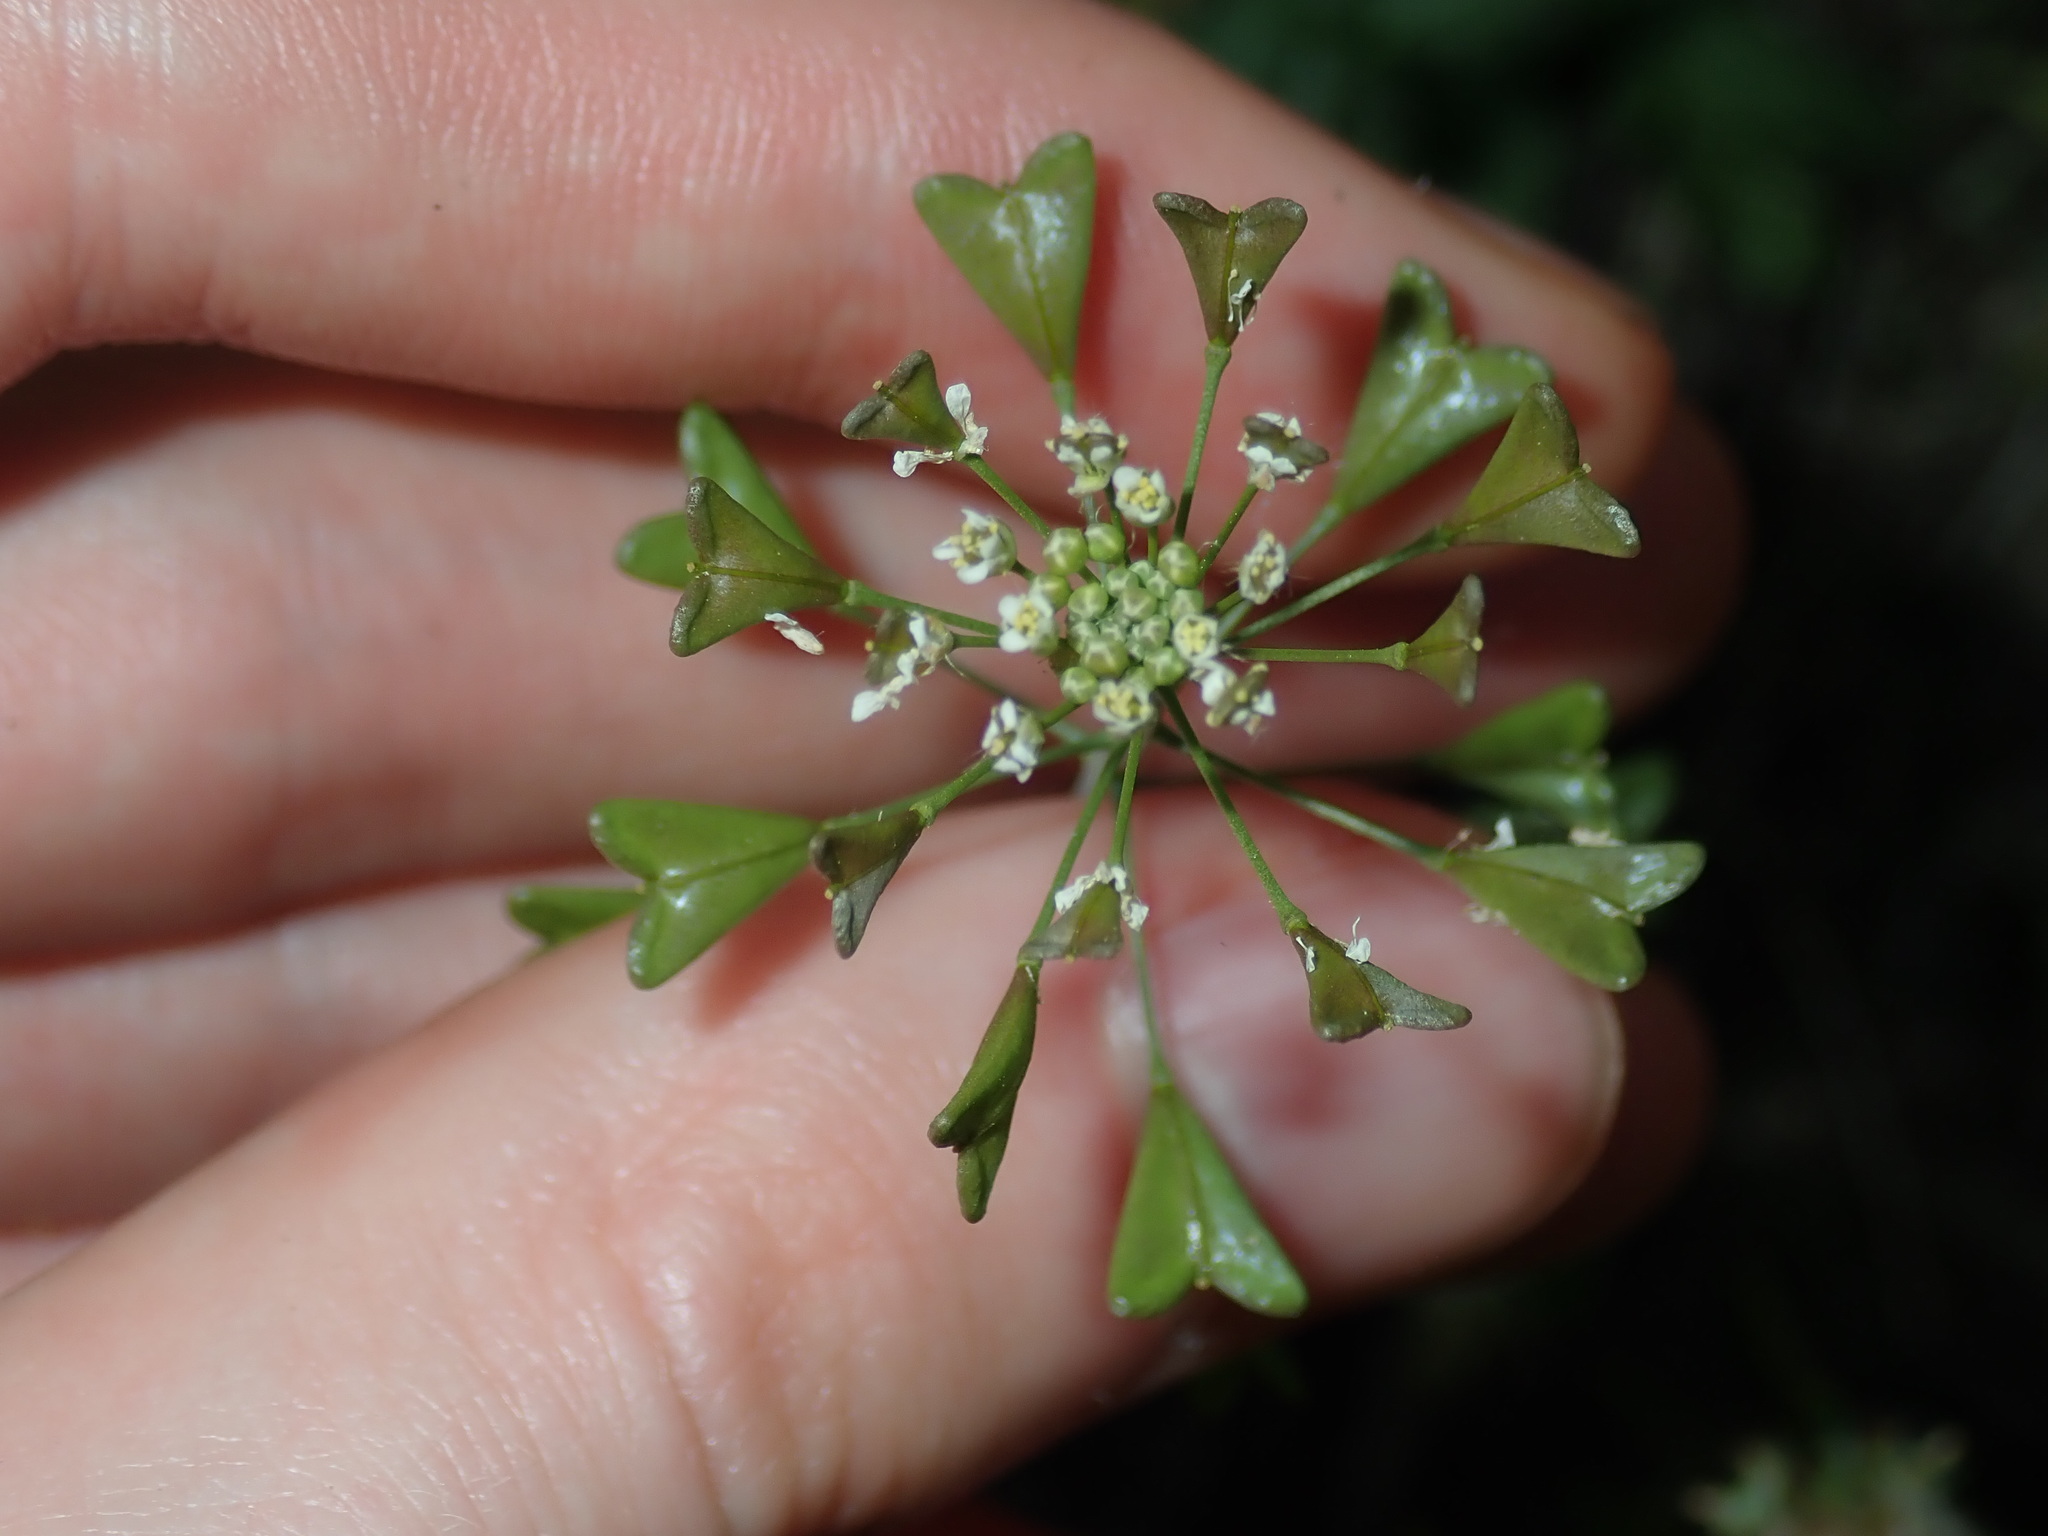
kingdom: Plantae
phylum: Tracheophyta
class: Magnoliopsida
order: Brassicales
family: Brassicaceae
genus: Capsella
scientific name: Capsella bursa-pastoris
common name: Shepherd's purse
